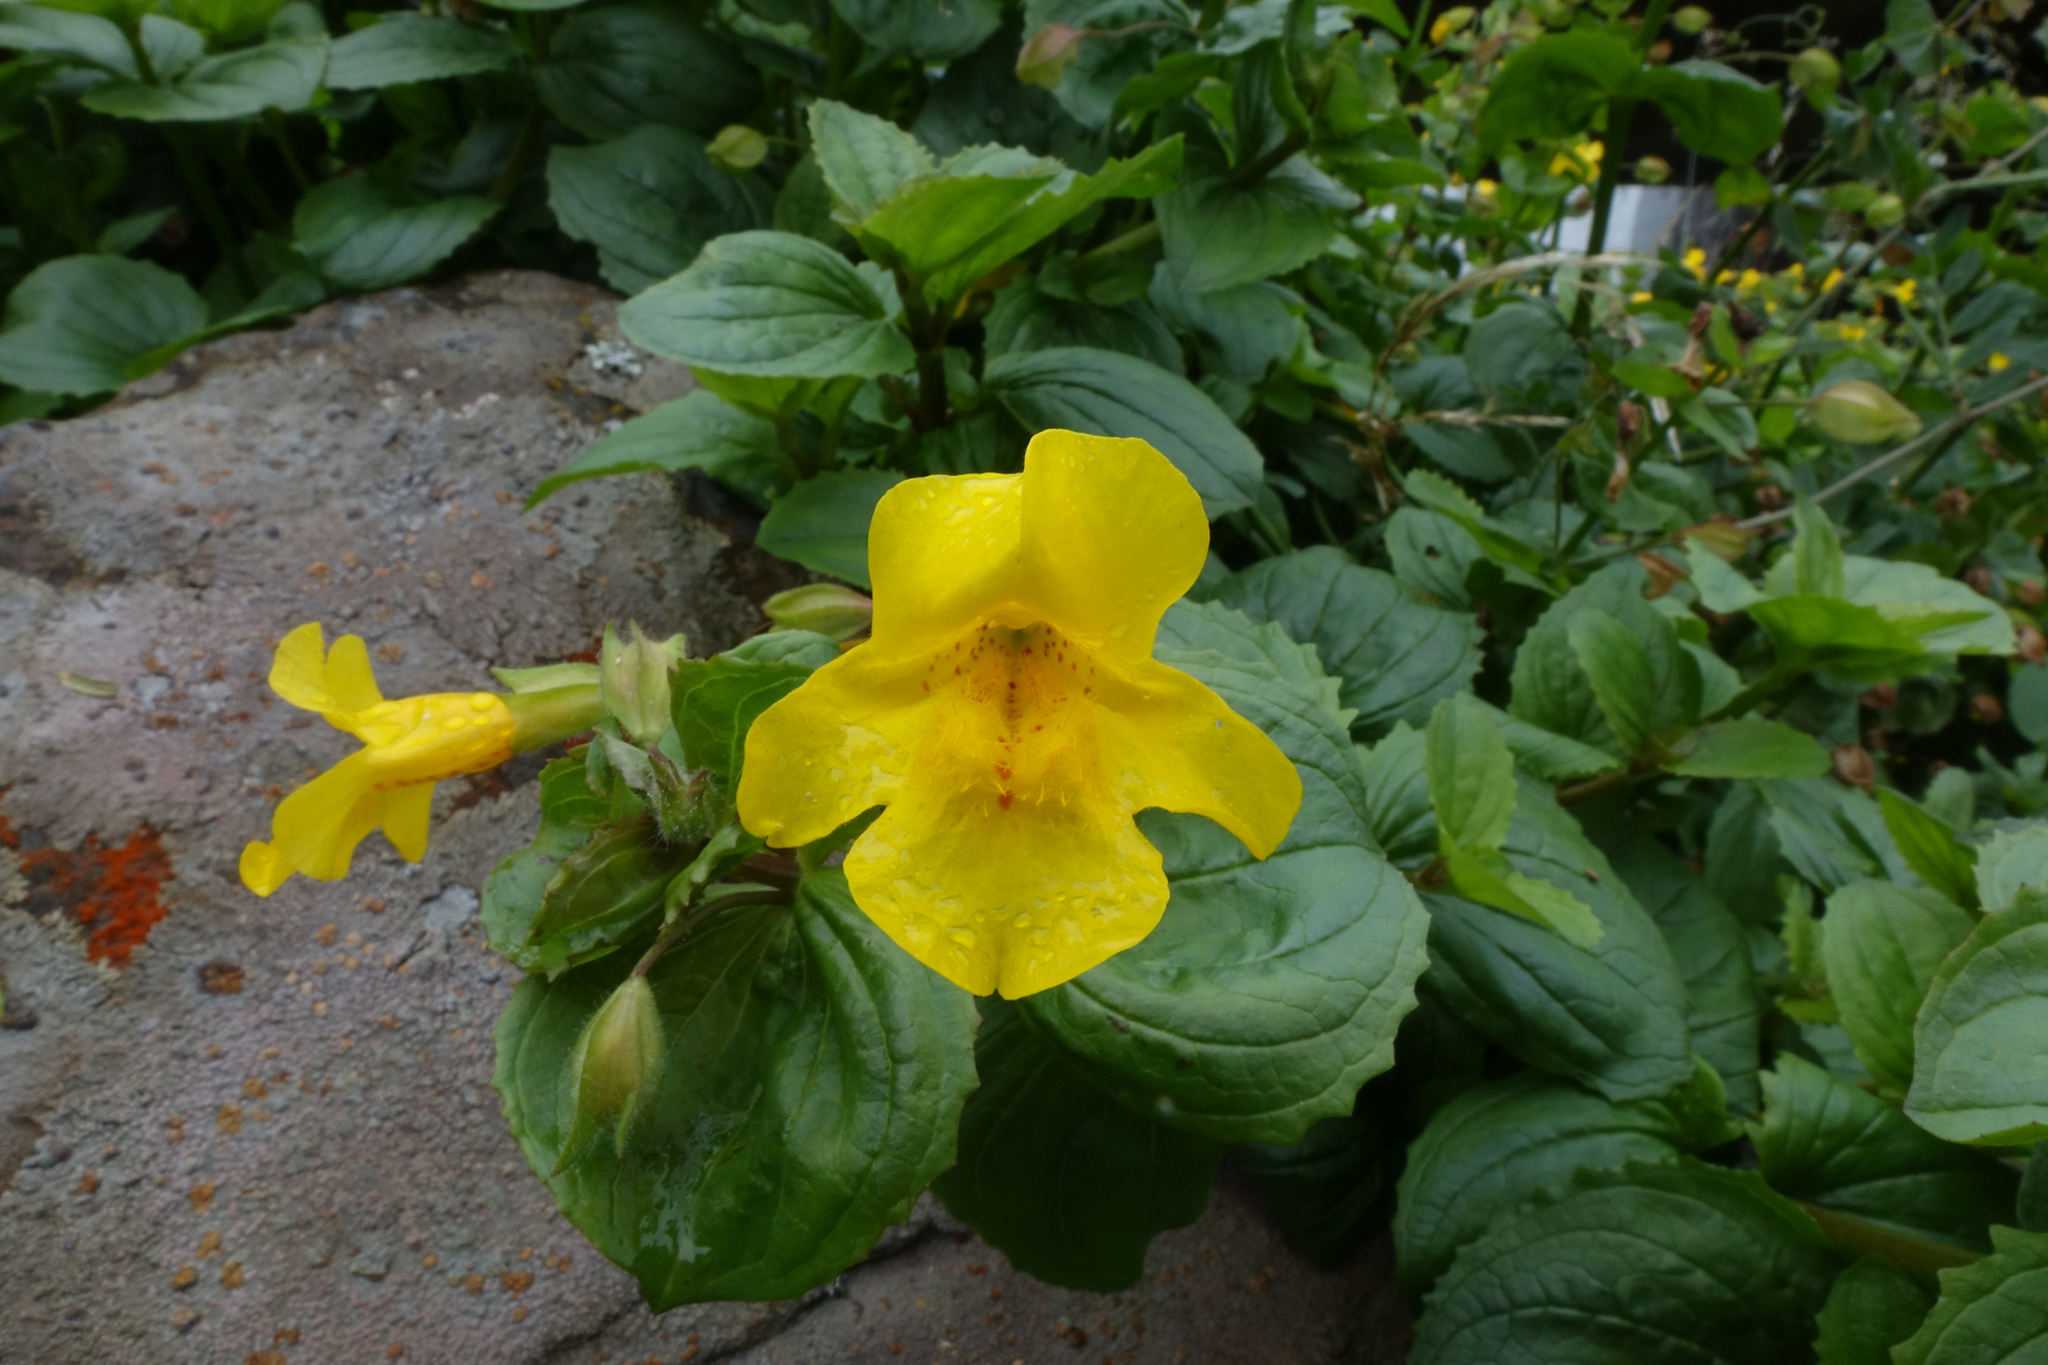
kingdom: Plantae
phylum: Tracheophyta
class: Magnoliopsida
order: Lamiales
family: Phrymaceae
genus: Erythranthe
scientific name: Erythranthe moschata
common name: Muskflower
